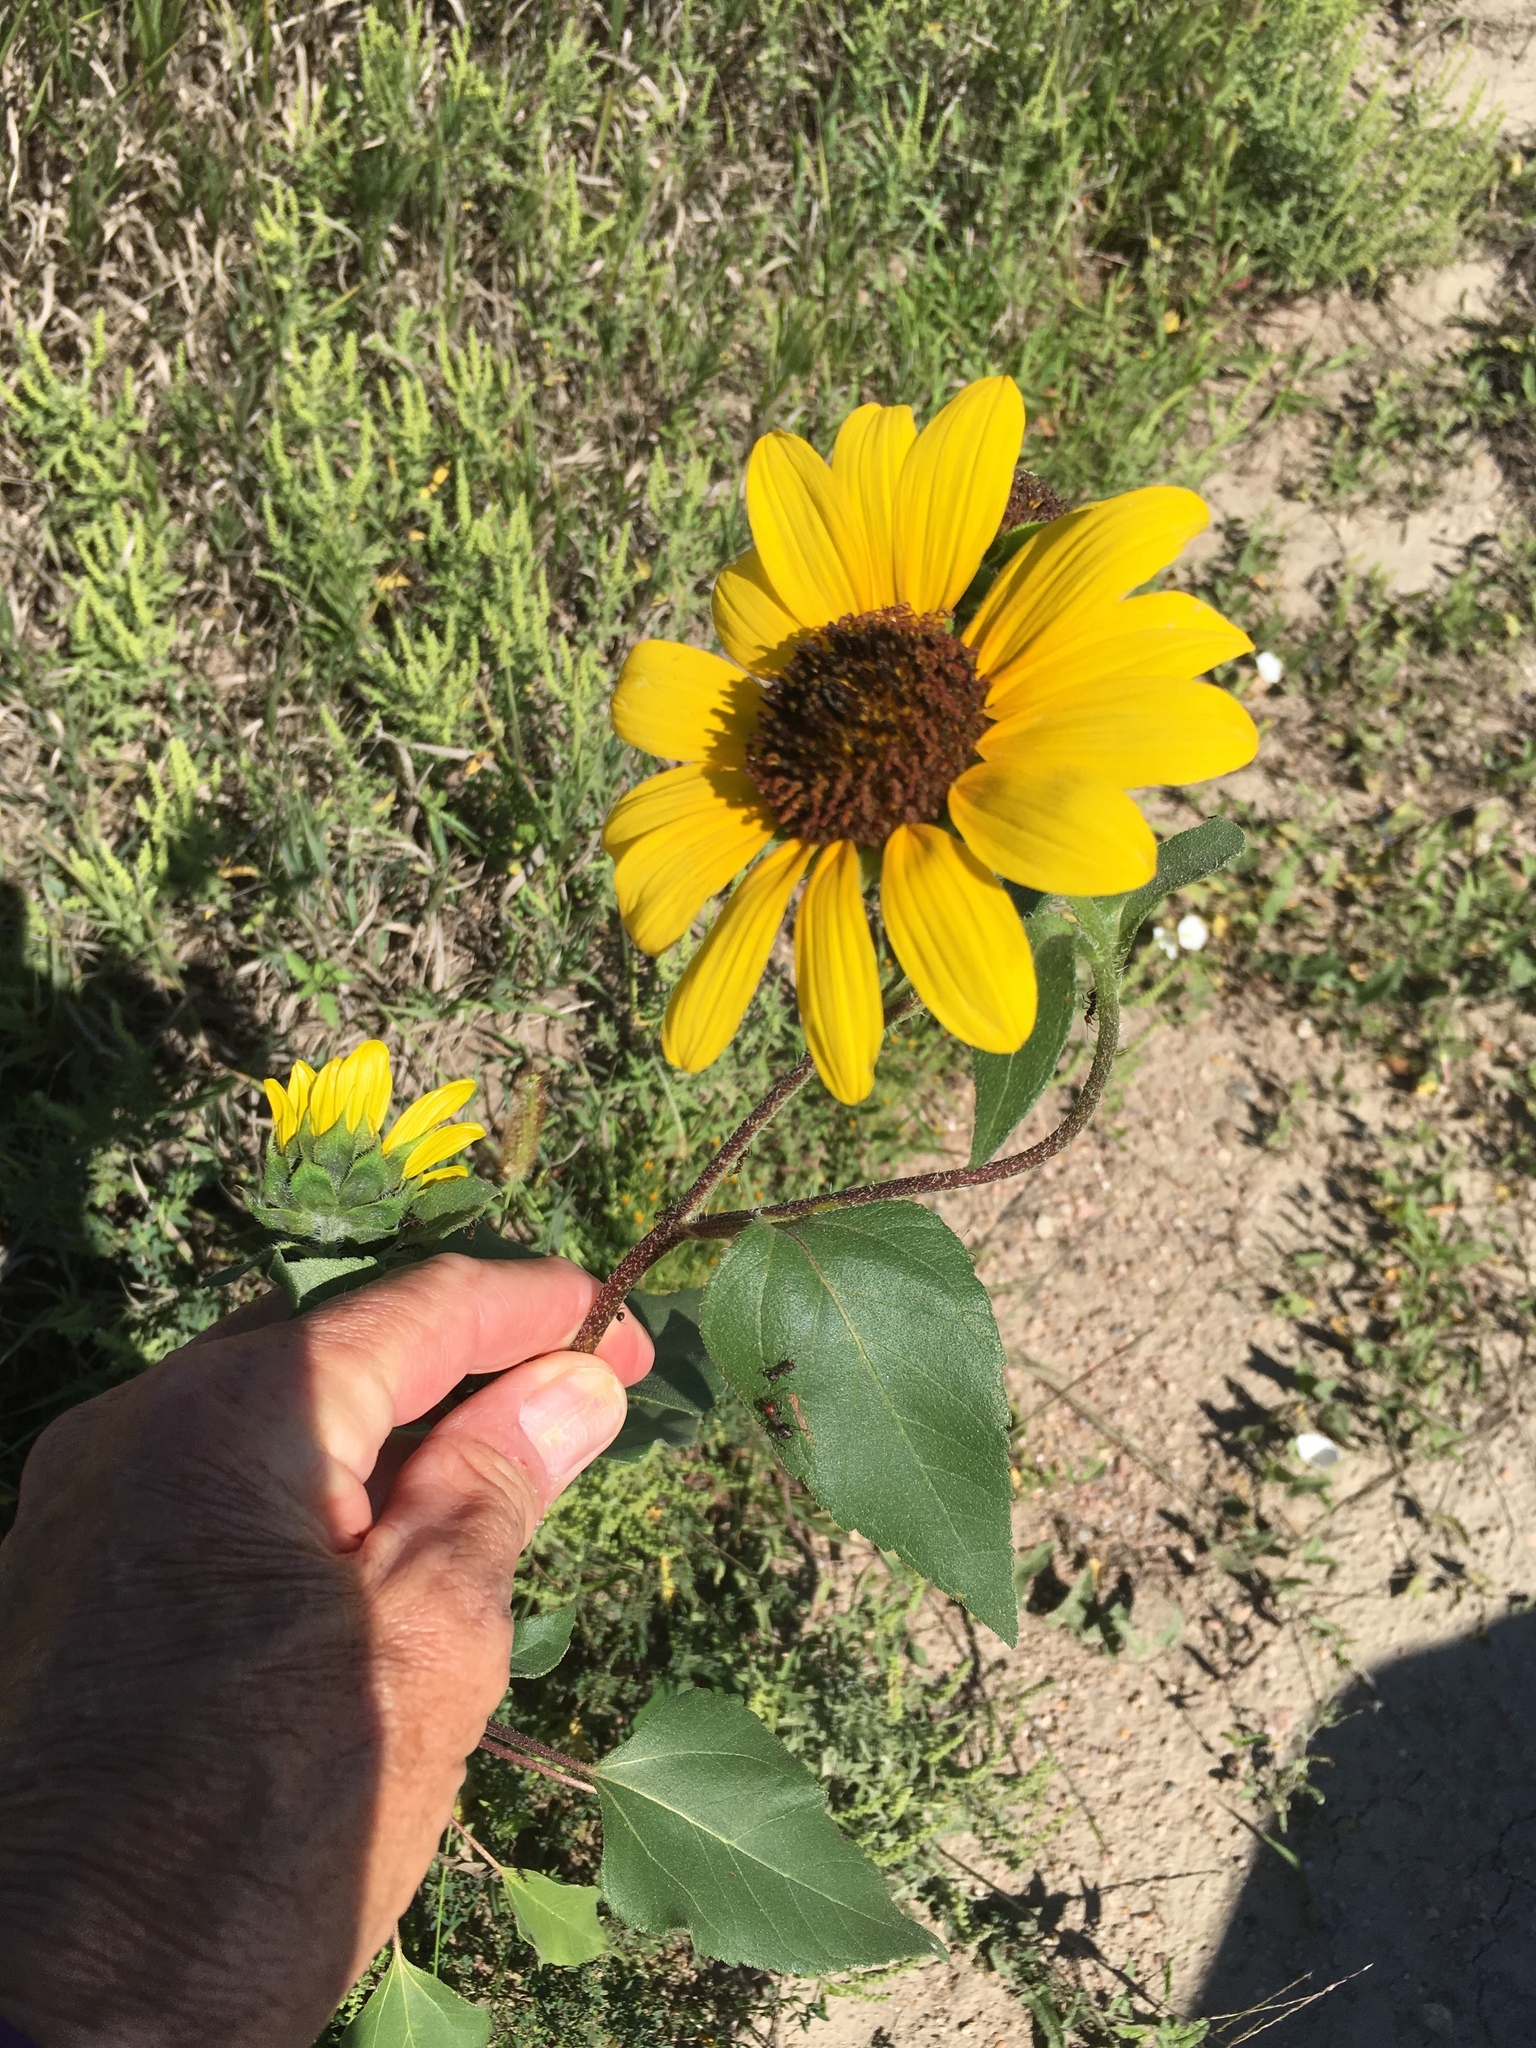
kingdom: Plantae
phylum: Tracheophyta
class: Magnoliopsida
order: Asterales
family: Asteraceae
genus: Helianthus
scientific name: Helianthus annuus
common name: Sunflower
